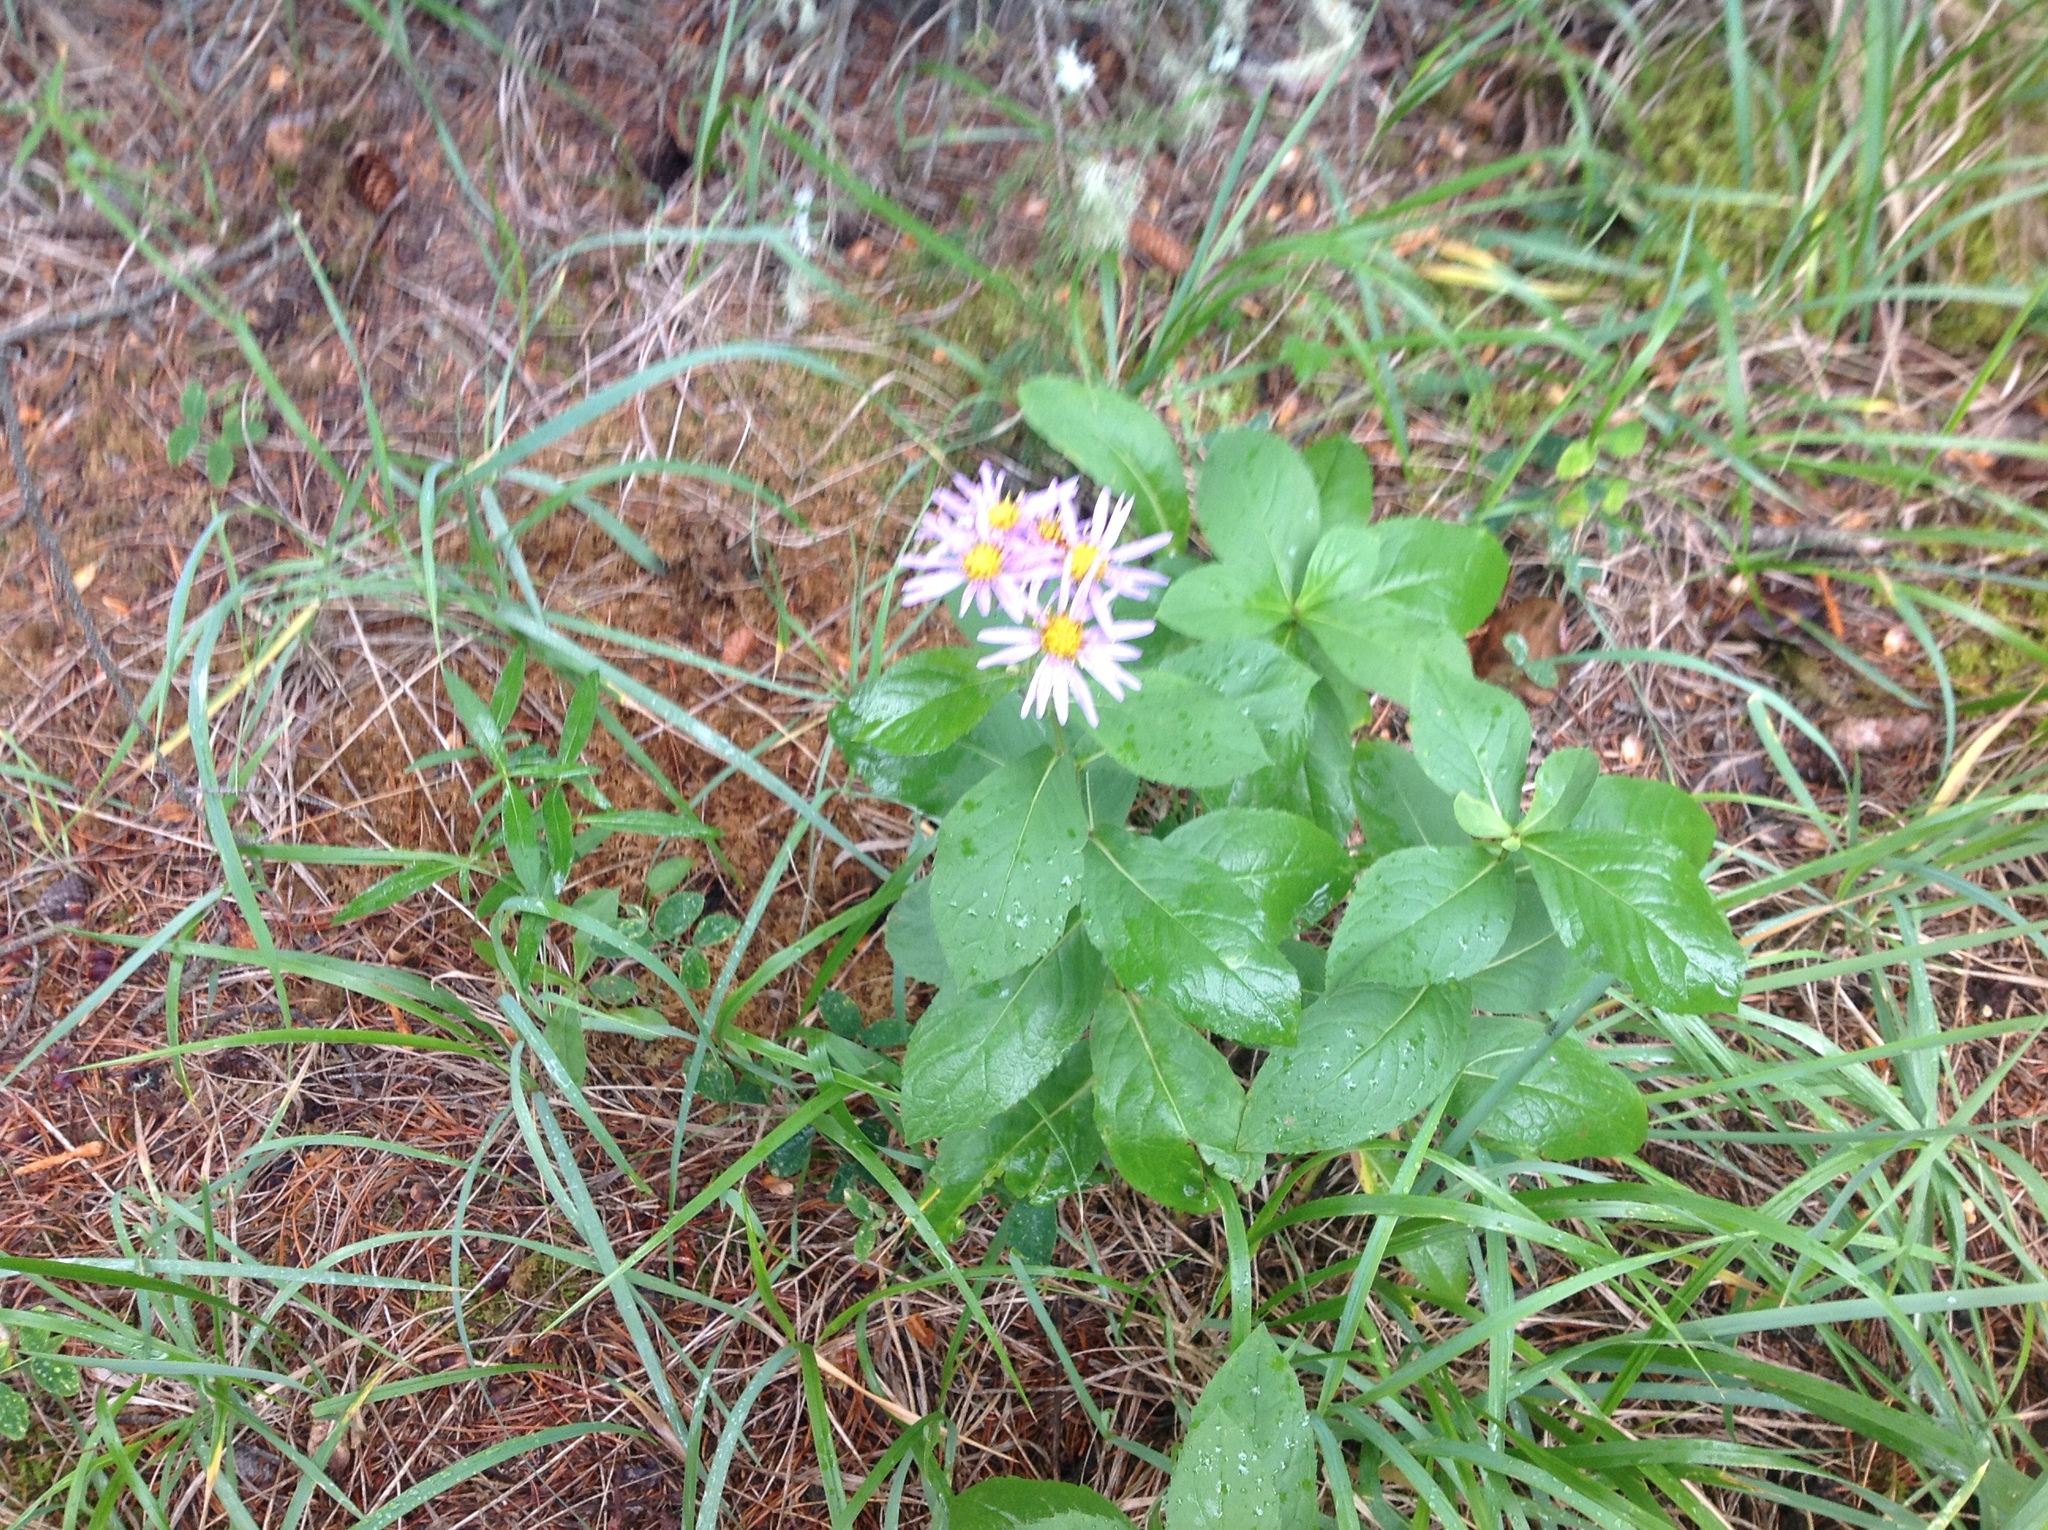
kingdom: Plantae
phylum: Tracheophyta
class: Magnoliopsida
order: Asterales
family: Asteraceae
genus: Eurybia
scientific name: Eurybia conspicua
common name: Showy aster
